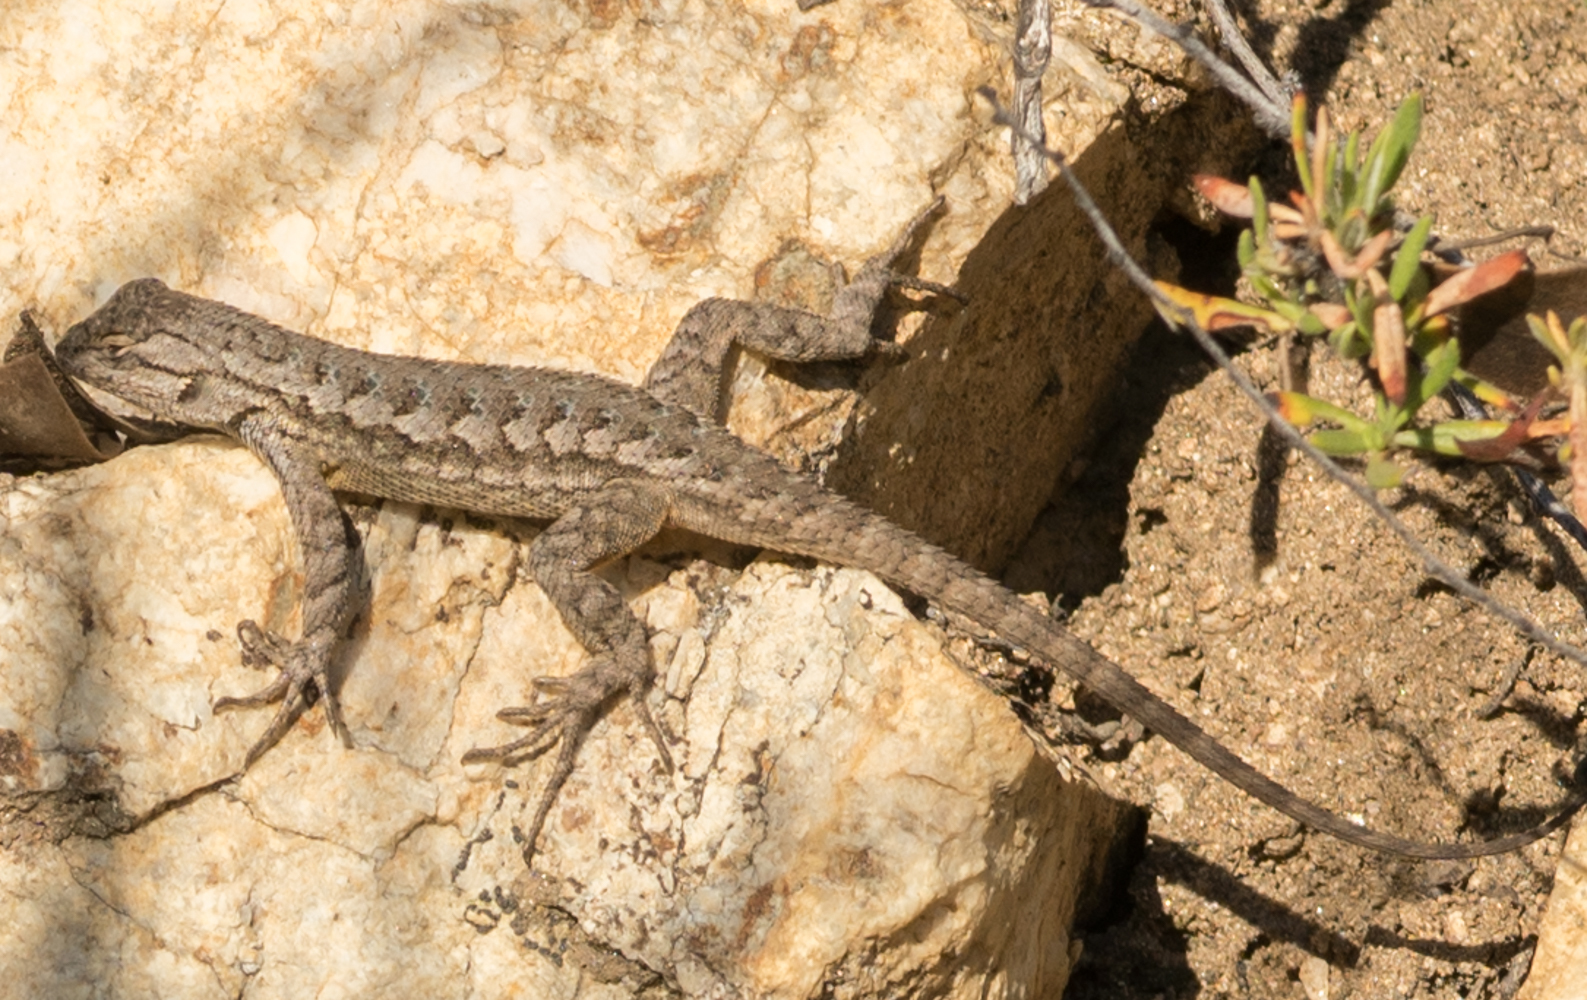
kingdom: Animalia
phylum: Chordata
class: Squamata
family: Phrynosomatidae
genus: Sceloporus
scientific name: Sceloporus occidentalis
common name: Western fence lizard
